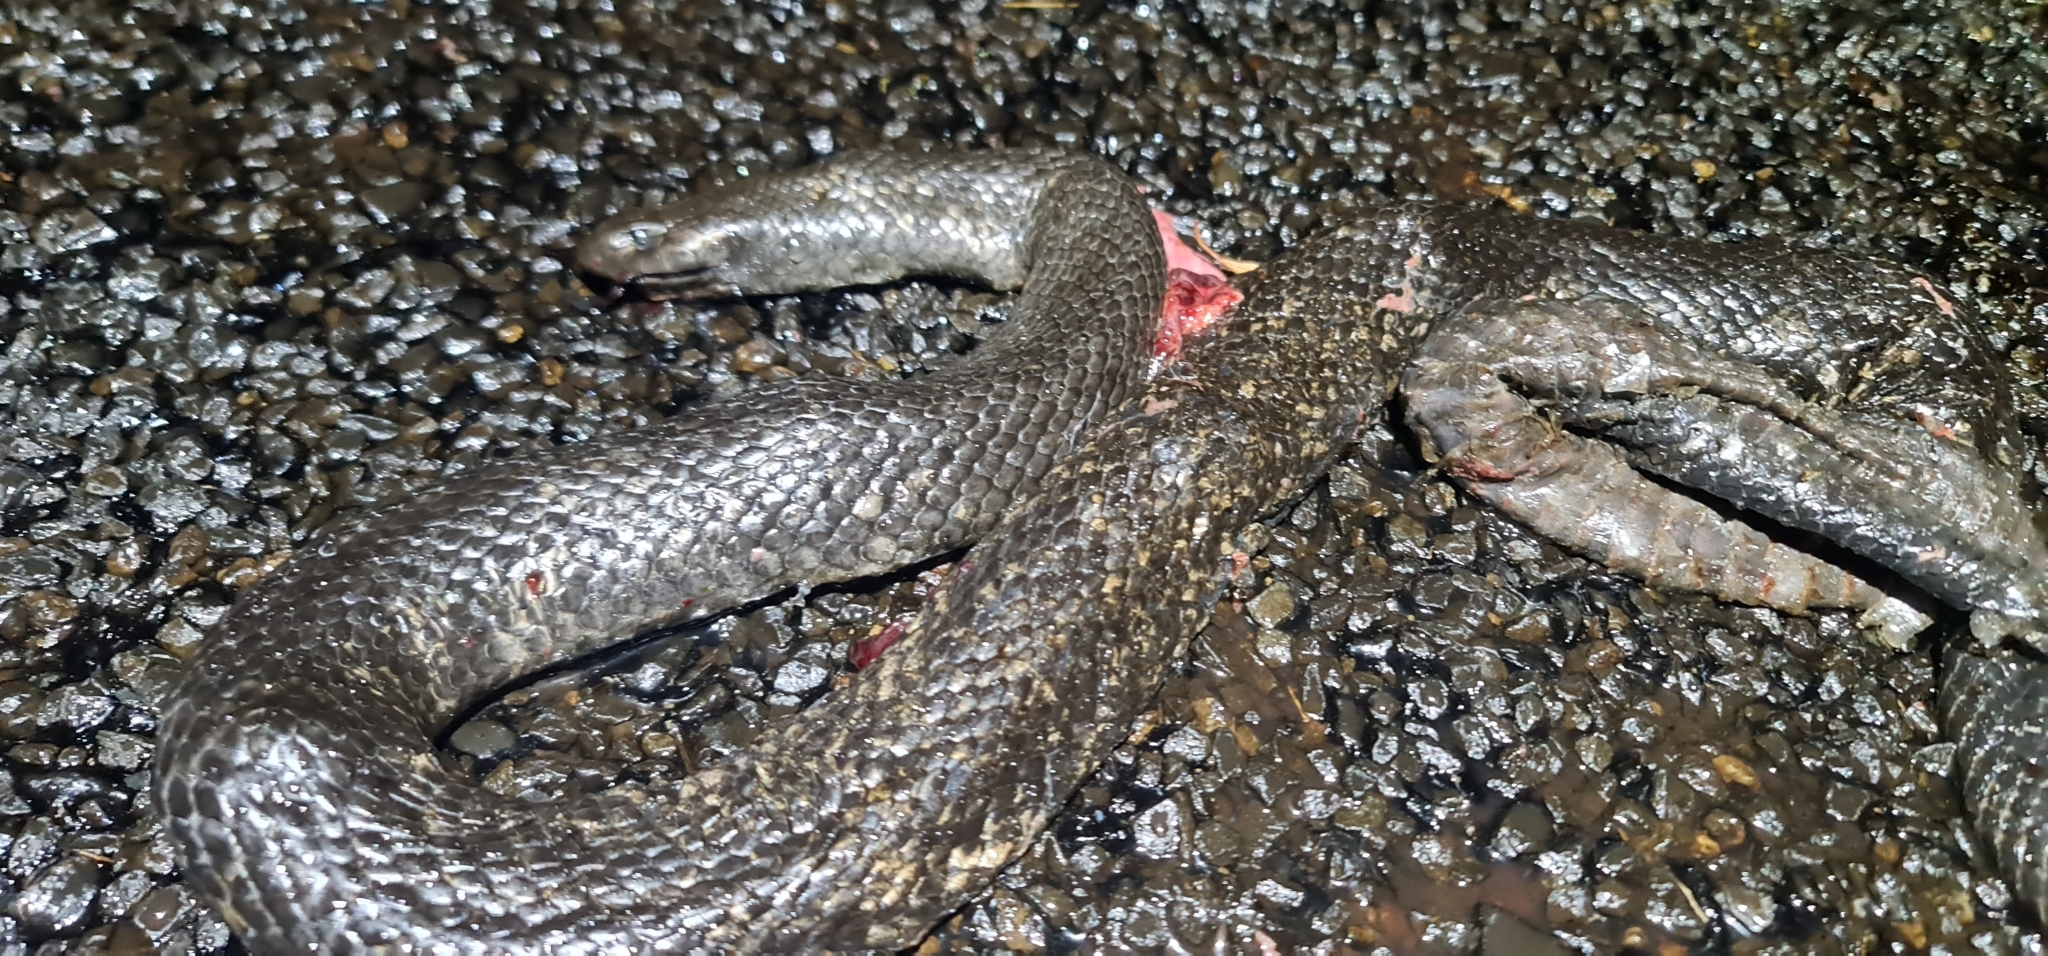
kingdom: Animalia
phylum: Chordata
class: Squamata
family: Elapidae
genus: Pseudechis
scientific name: Pseudechis guttatus
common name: Blue-bellied black snake
